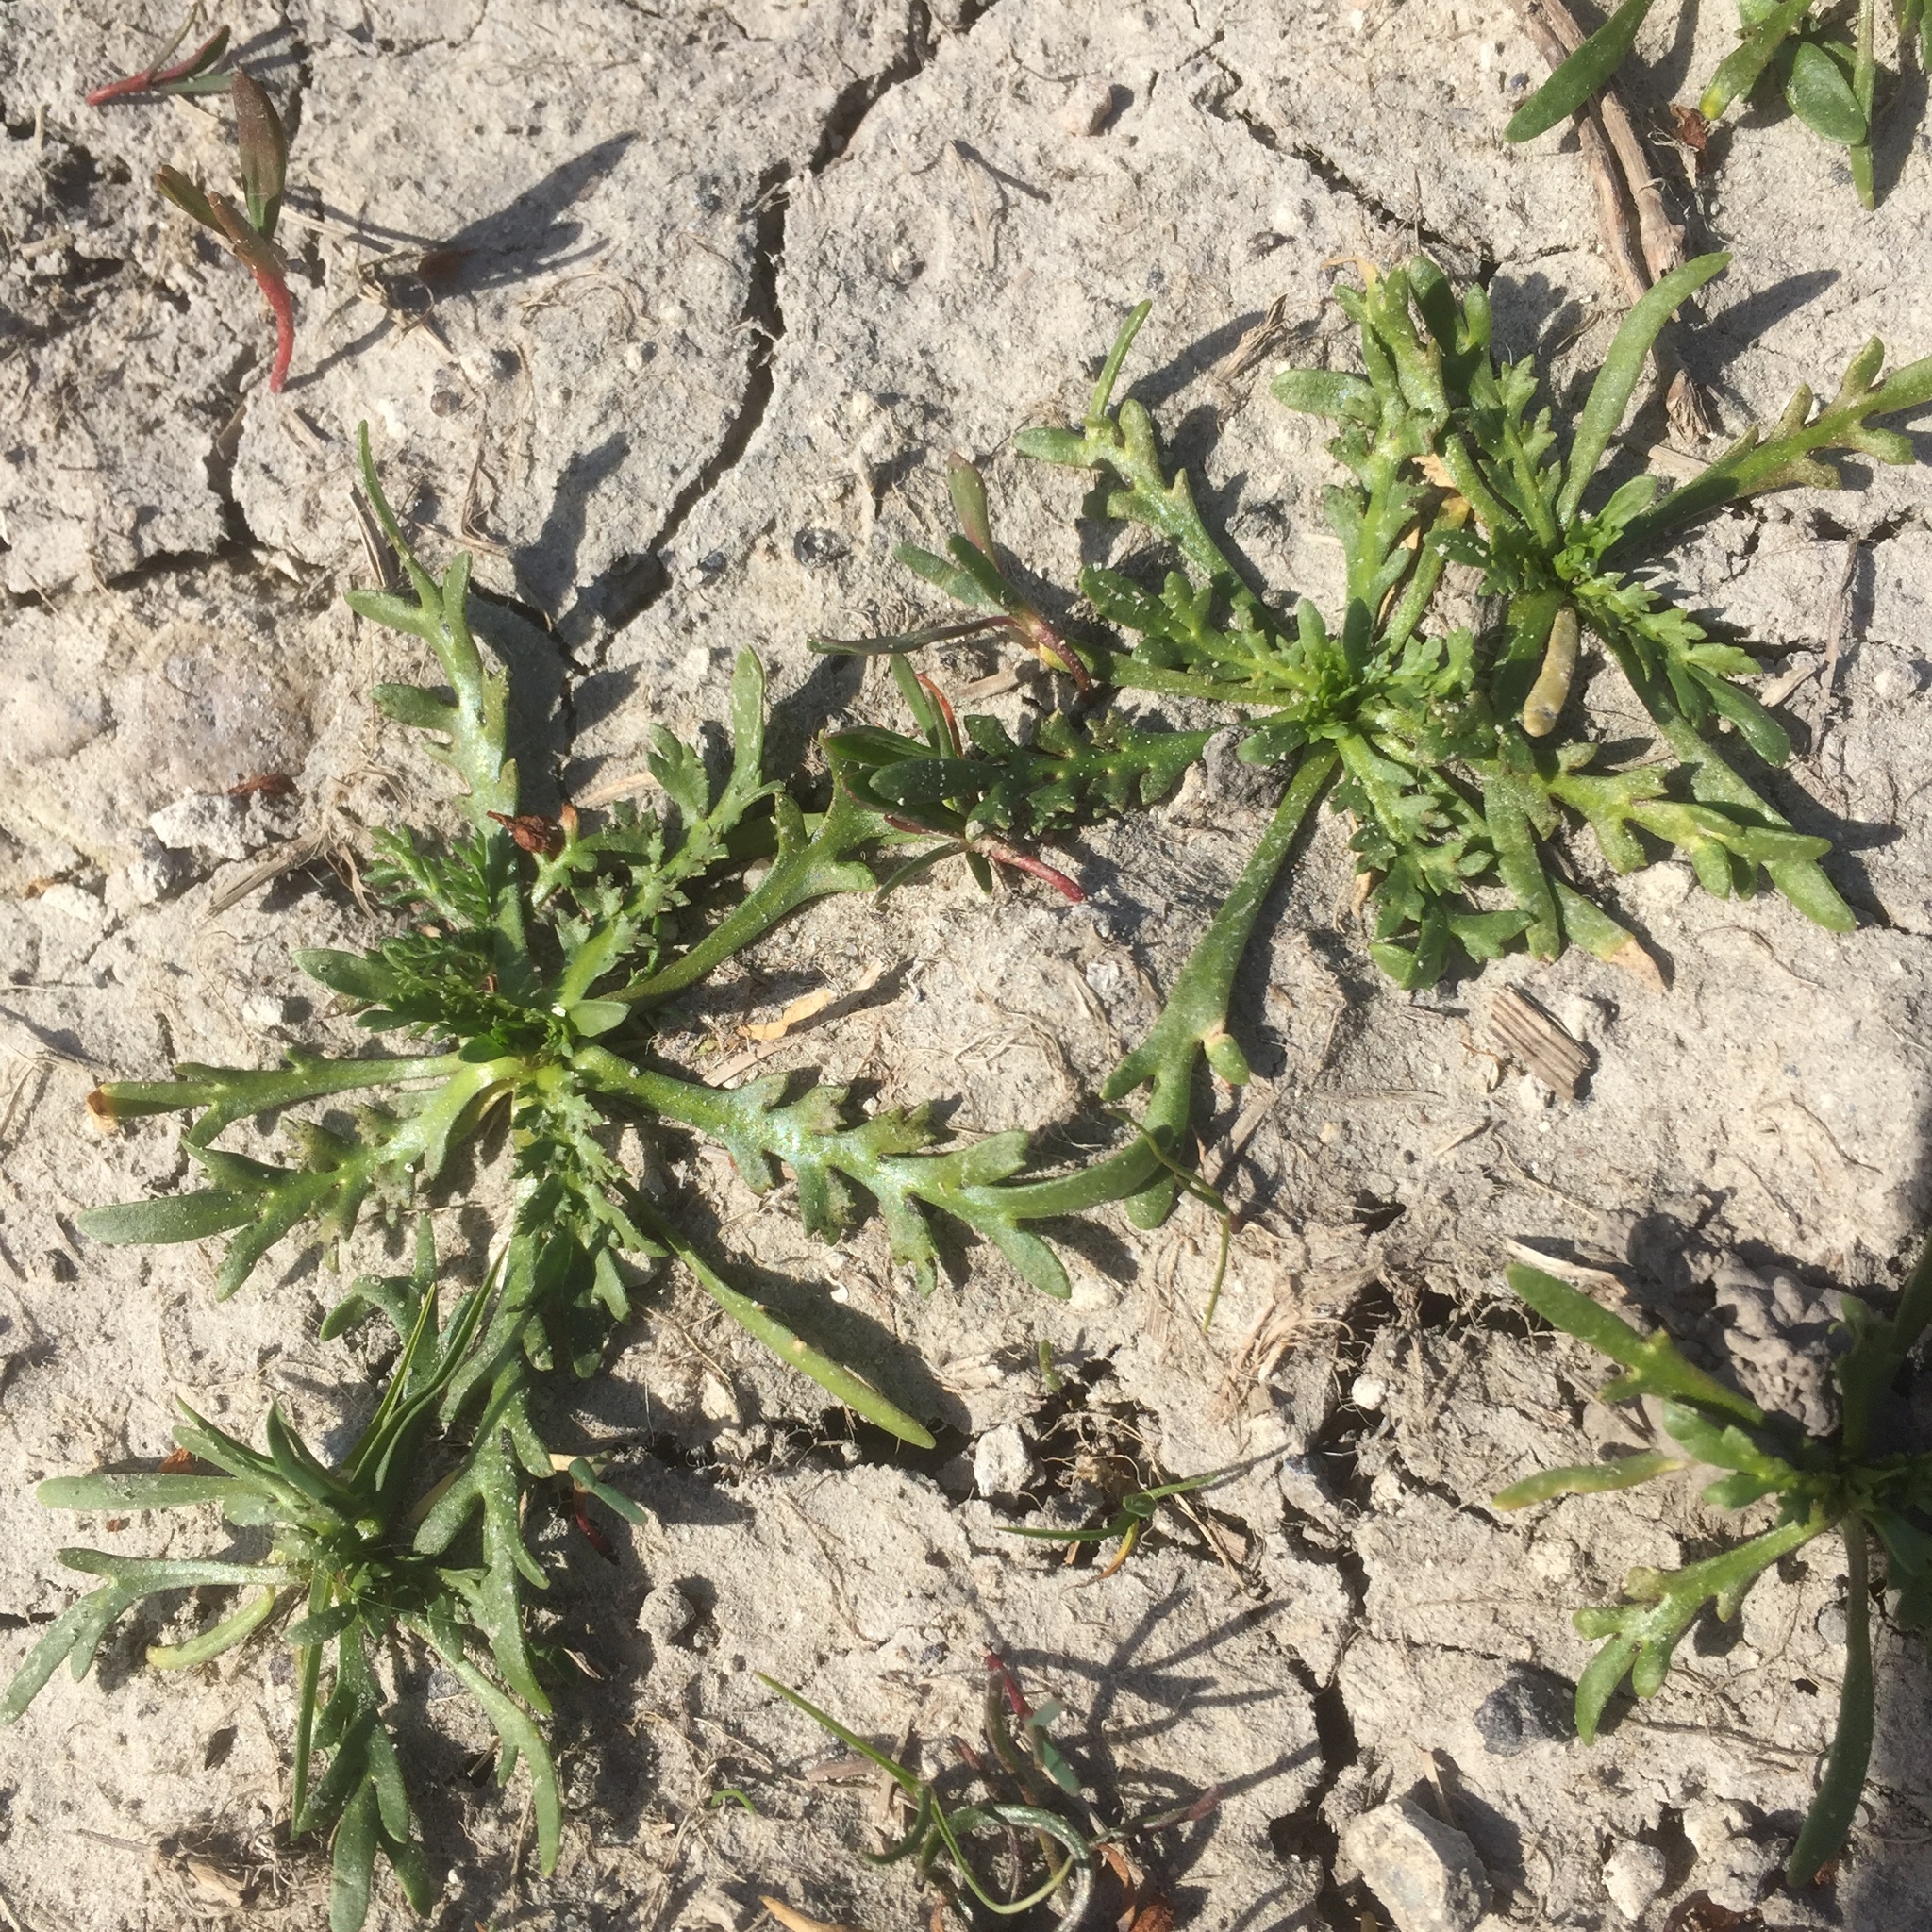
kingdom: Plantae
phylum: Tracheophyta
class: Magnoliopsida
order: Lamiales
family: Plantaginaceae
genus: Plantago
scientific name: Plantago coronopus
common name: Buck's-horn plantain
